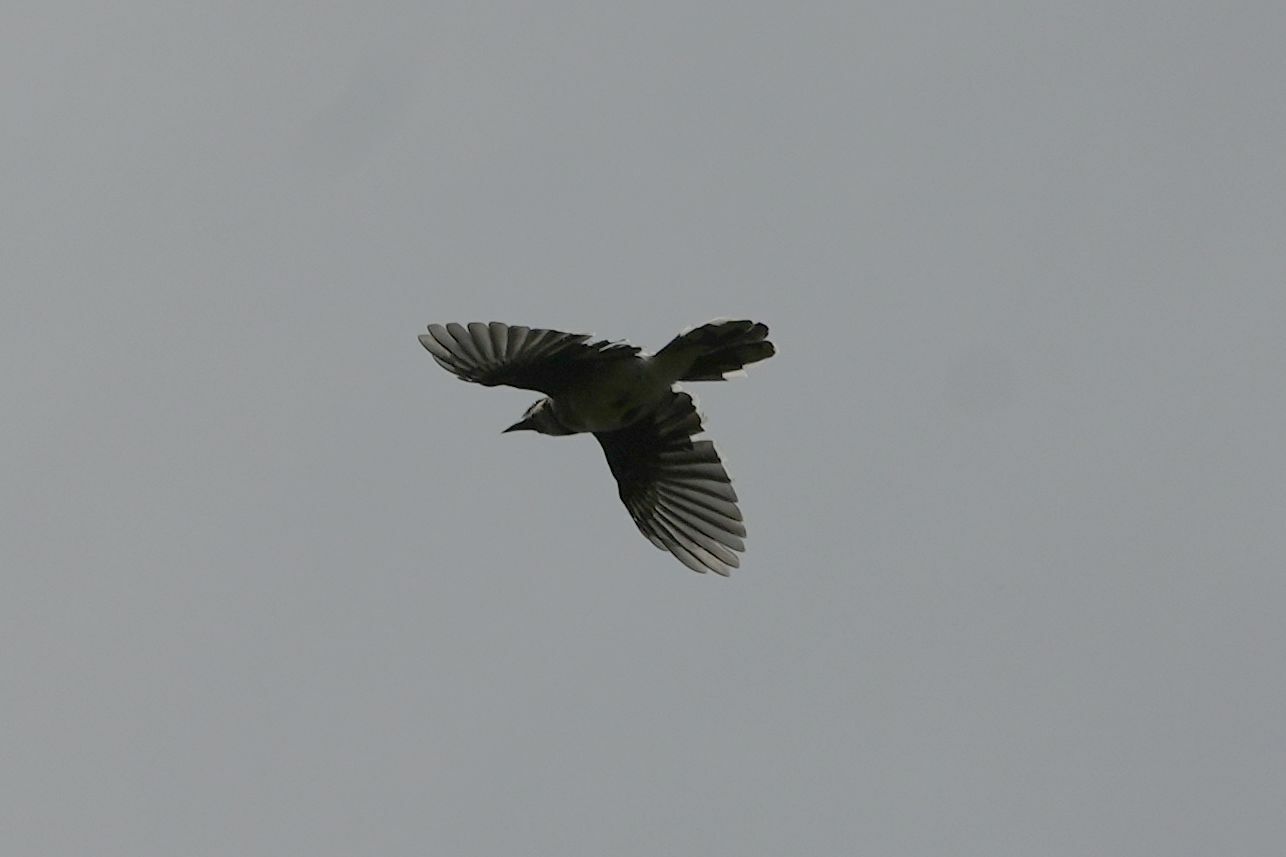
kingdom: Animalia
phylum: Chordata
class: Aves
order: Passeriformes
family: Corvidae
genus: Cyanocitta
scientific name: Cyanocitta cristata
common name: Blue jay
